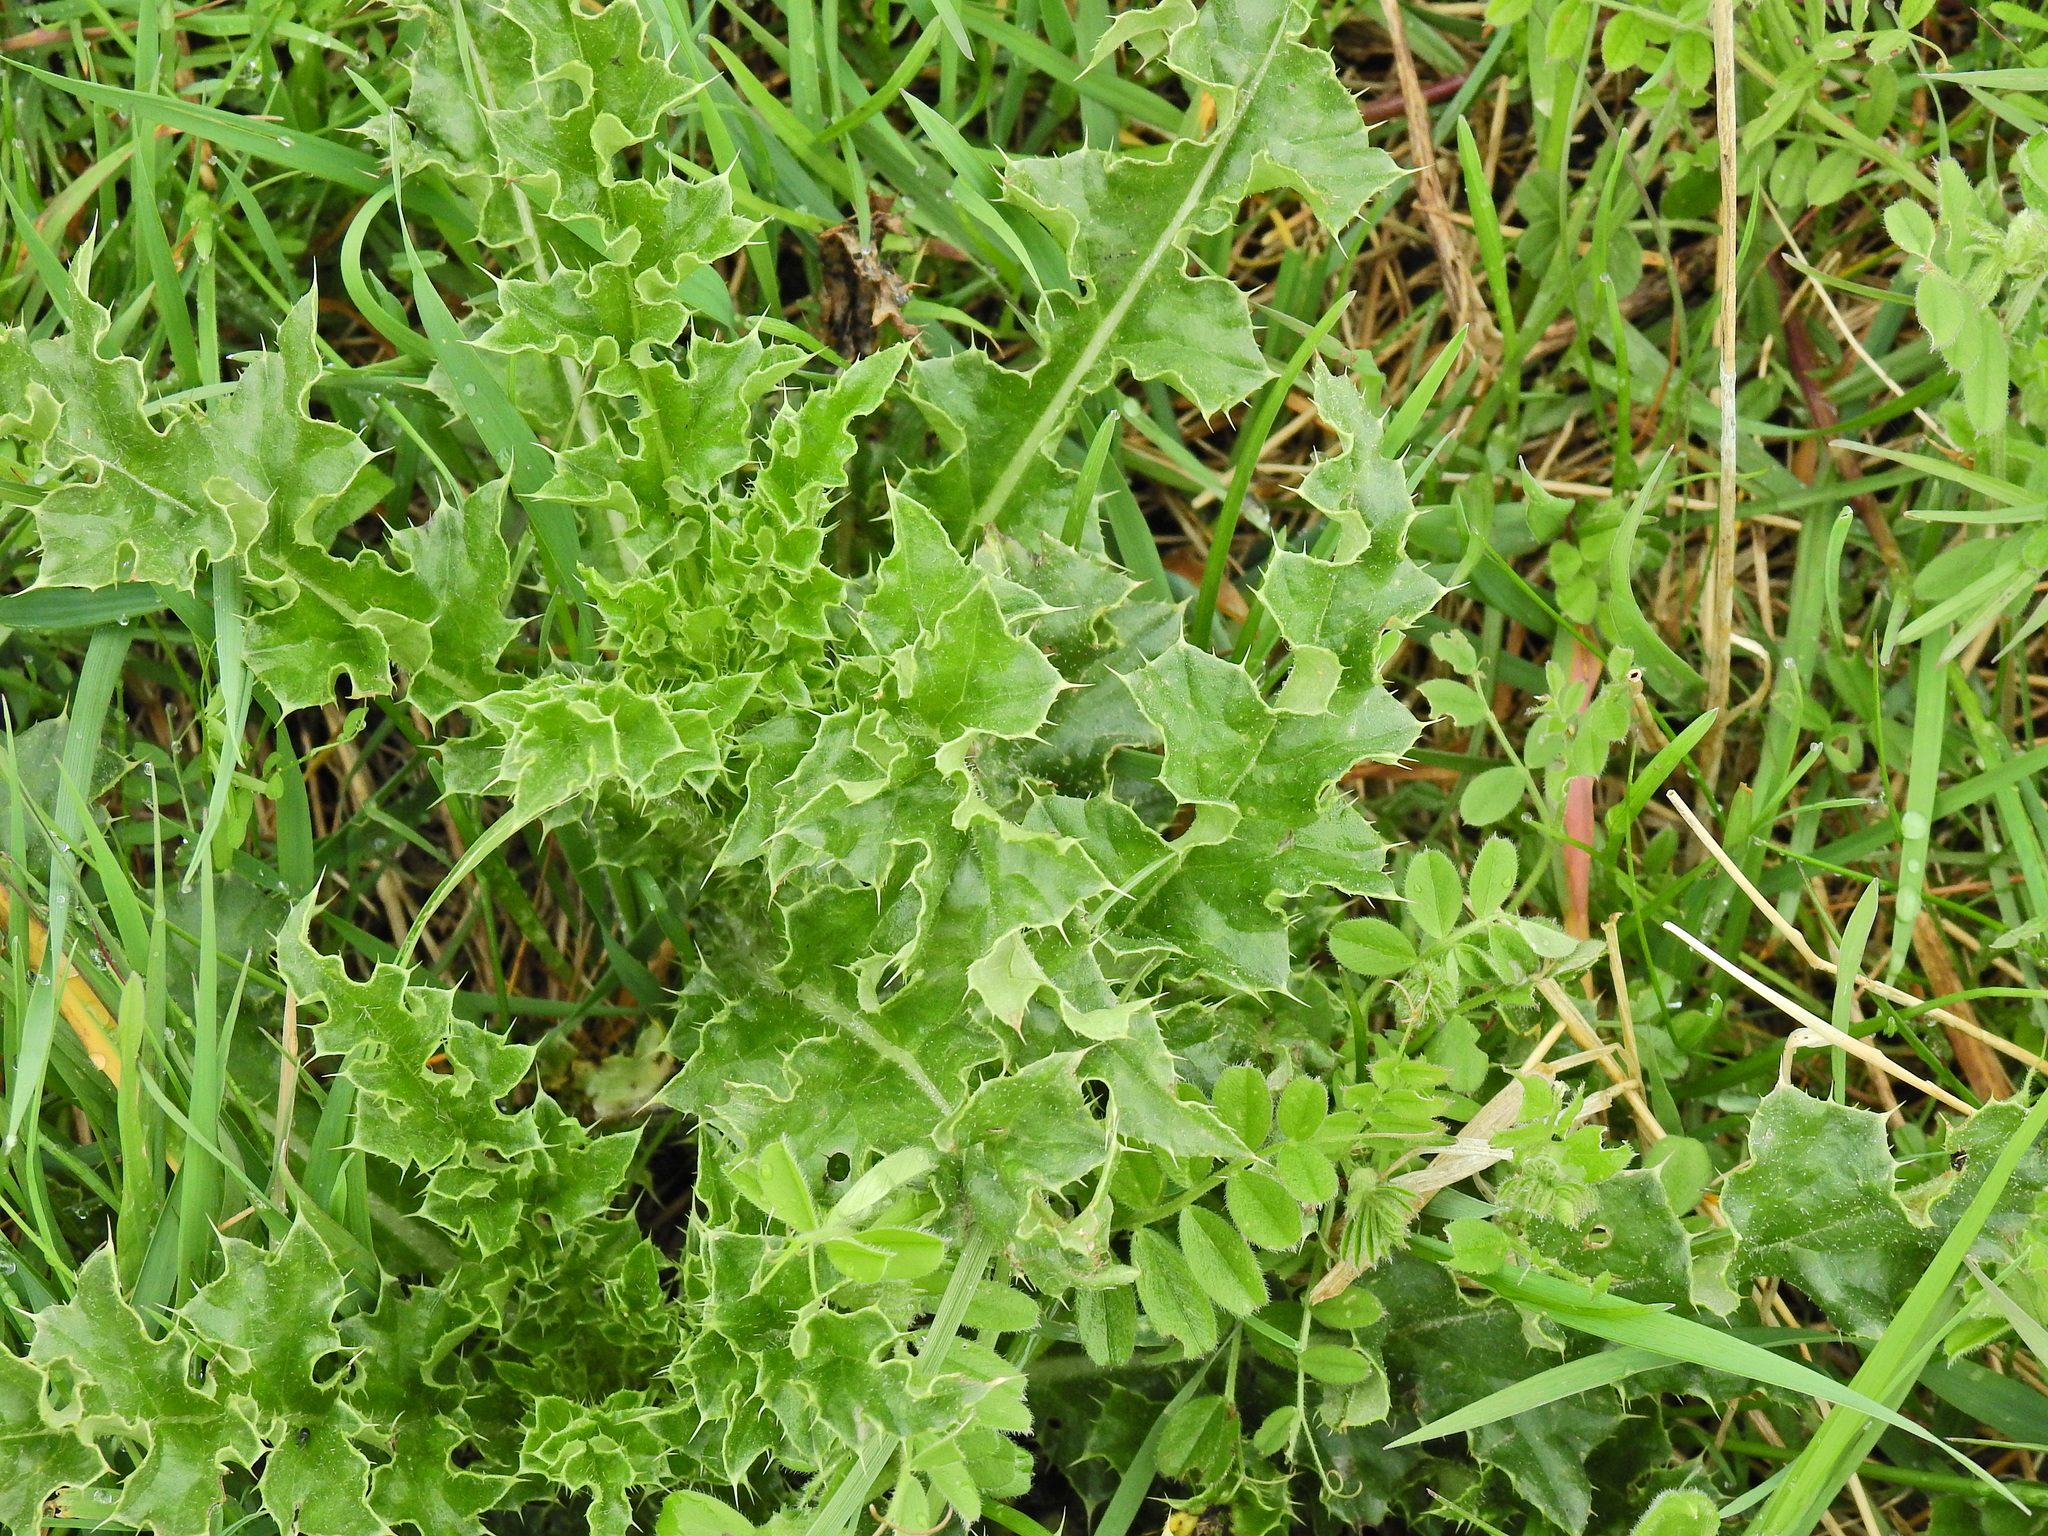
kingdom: Plantae
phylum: Tracheophyta
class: Magnoliopsida
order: Asterales
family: Asteraceae
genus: Cirsium
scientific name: Cirsium arvense
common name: Creeping thistle
